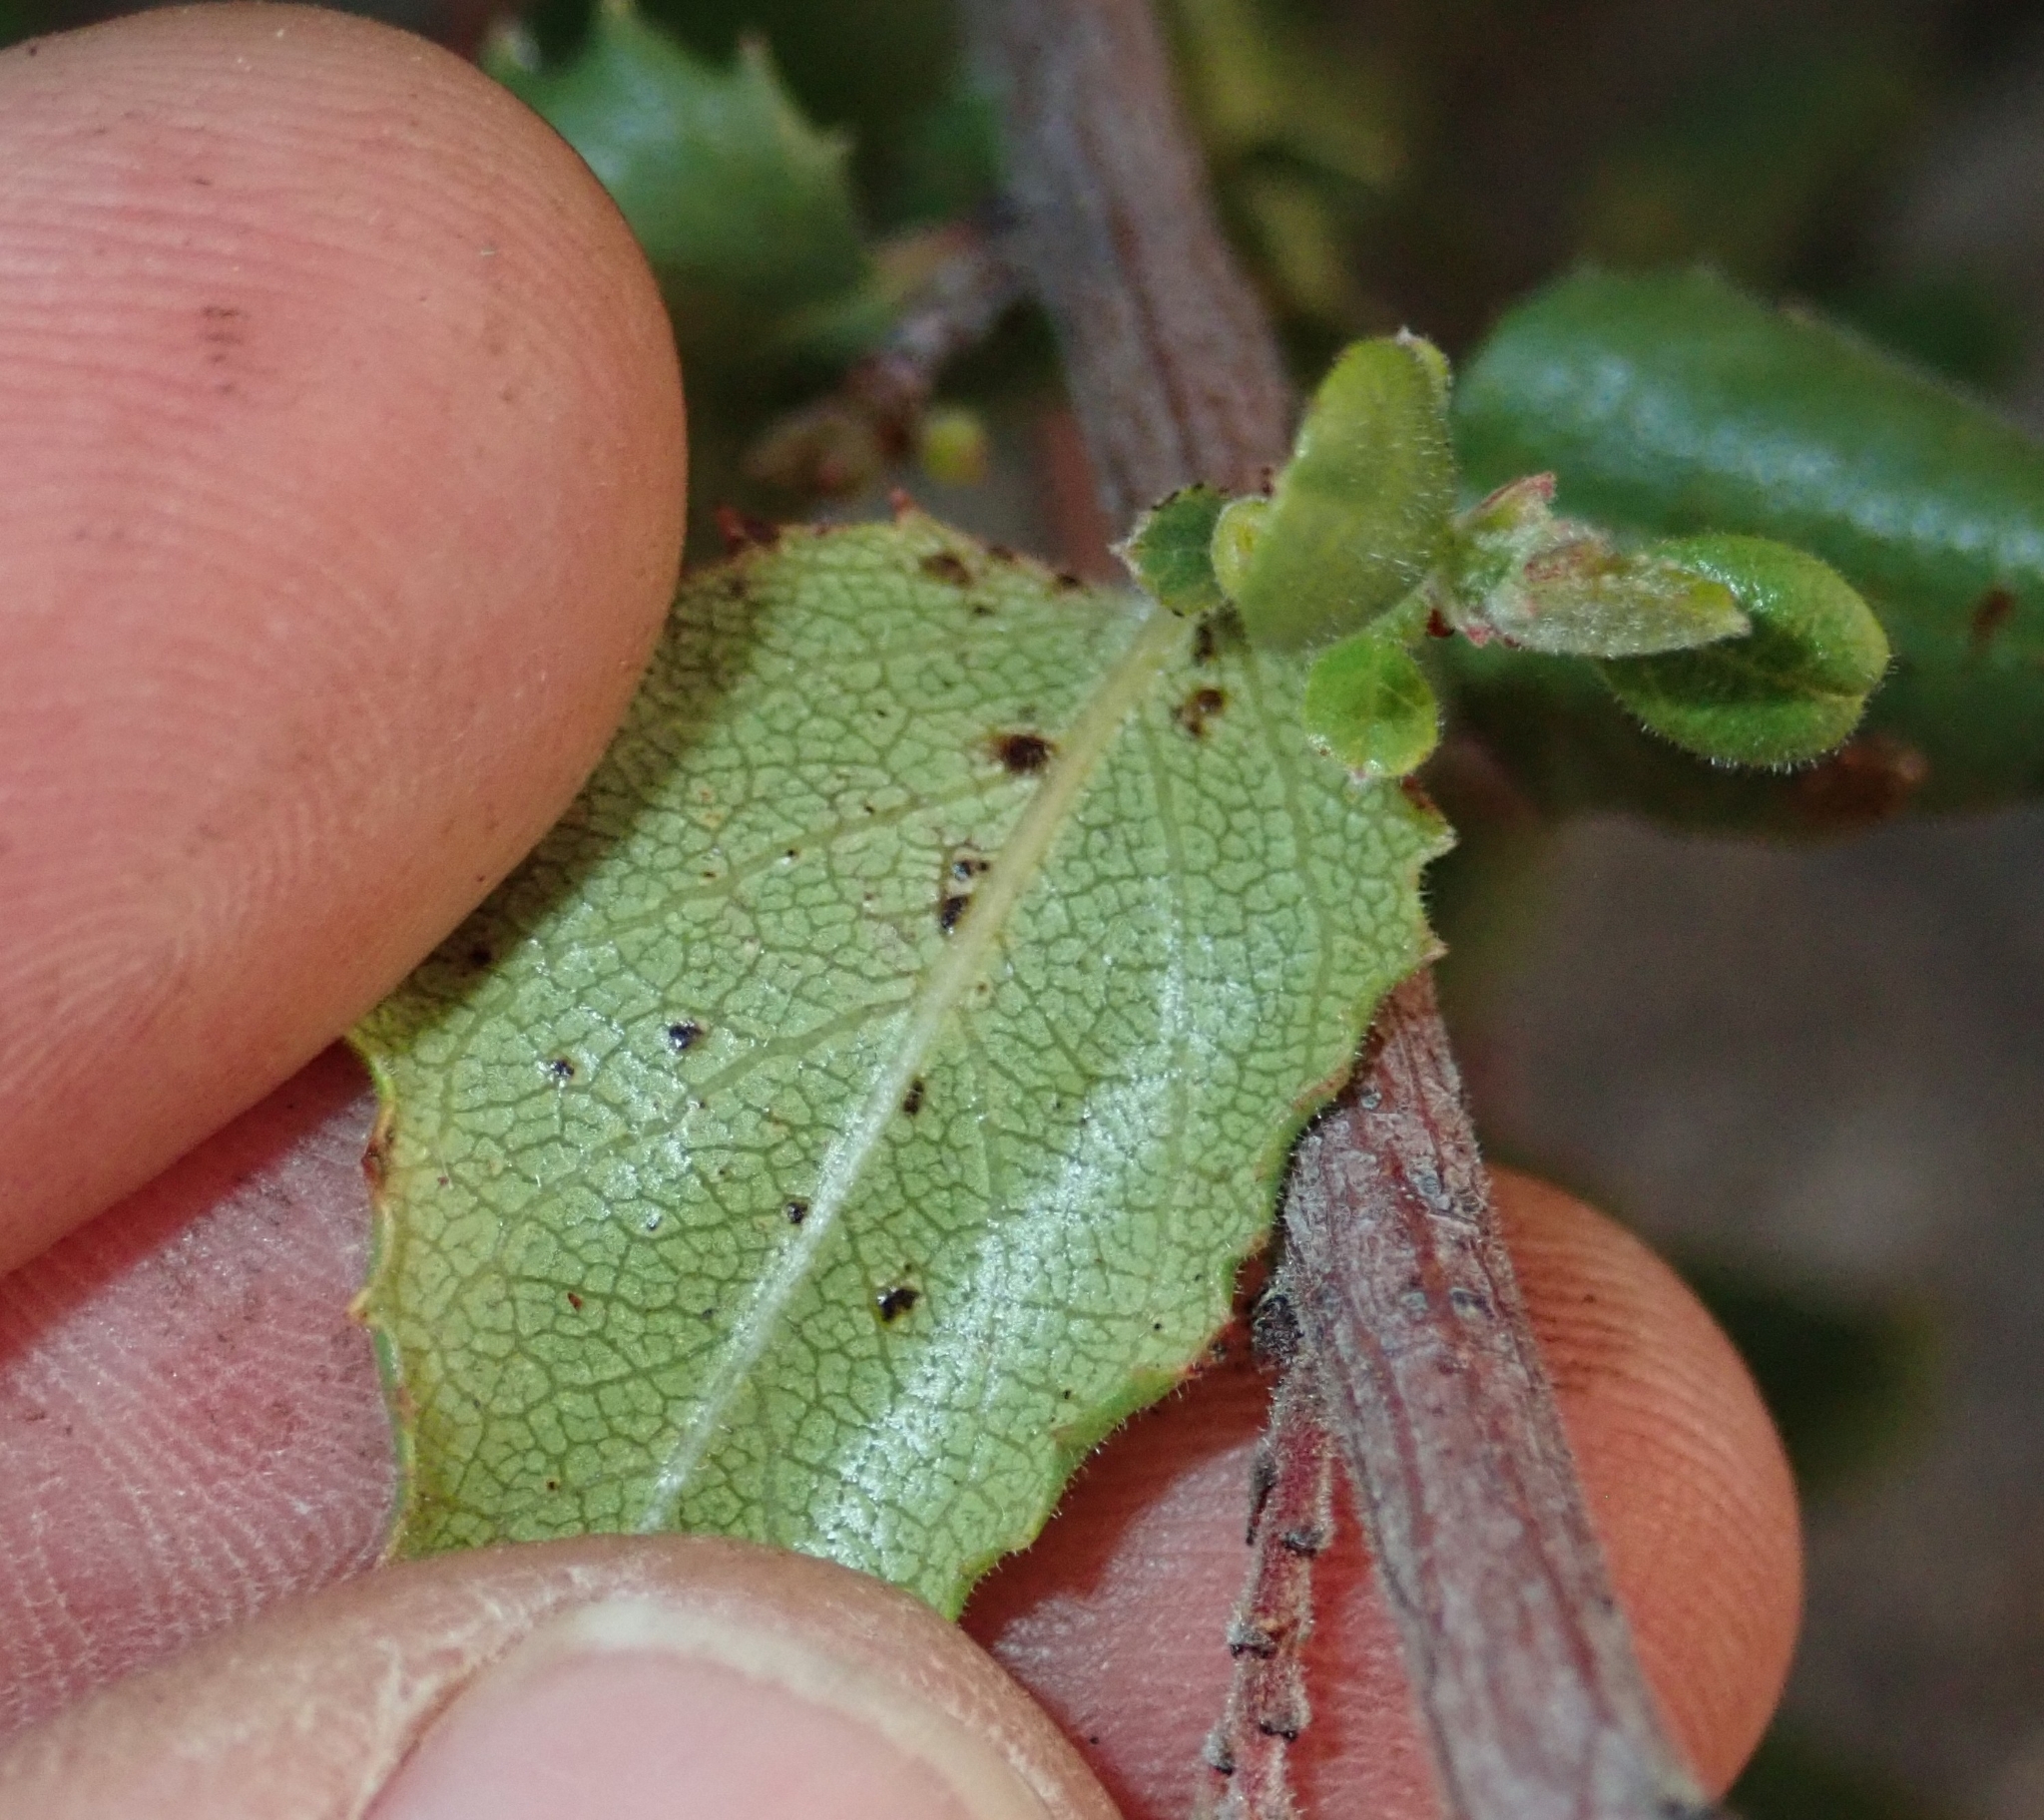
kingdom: Plantae
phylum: Tracheophyta
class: Magnoliopsida
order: Rosales
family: Rhamnaceae
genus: Endotropis
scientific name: Endotropis crocea
